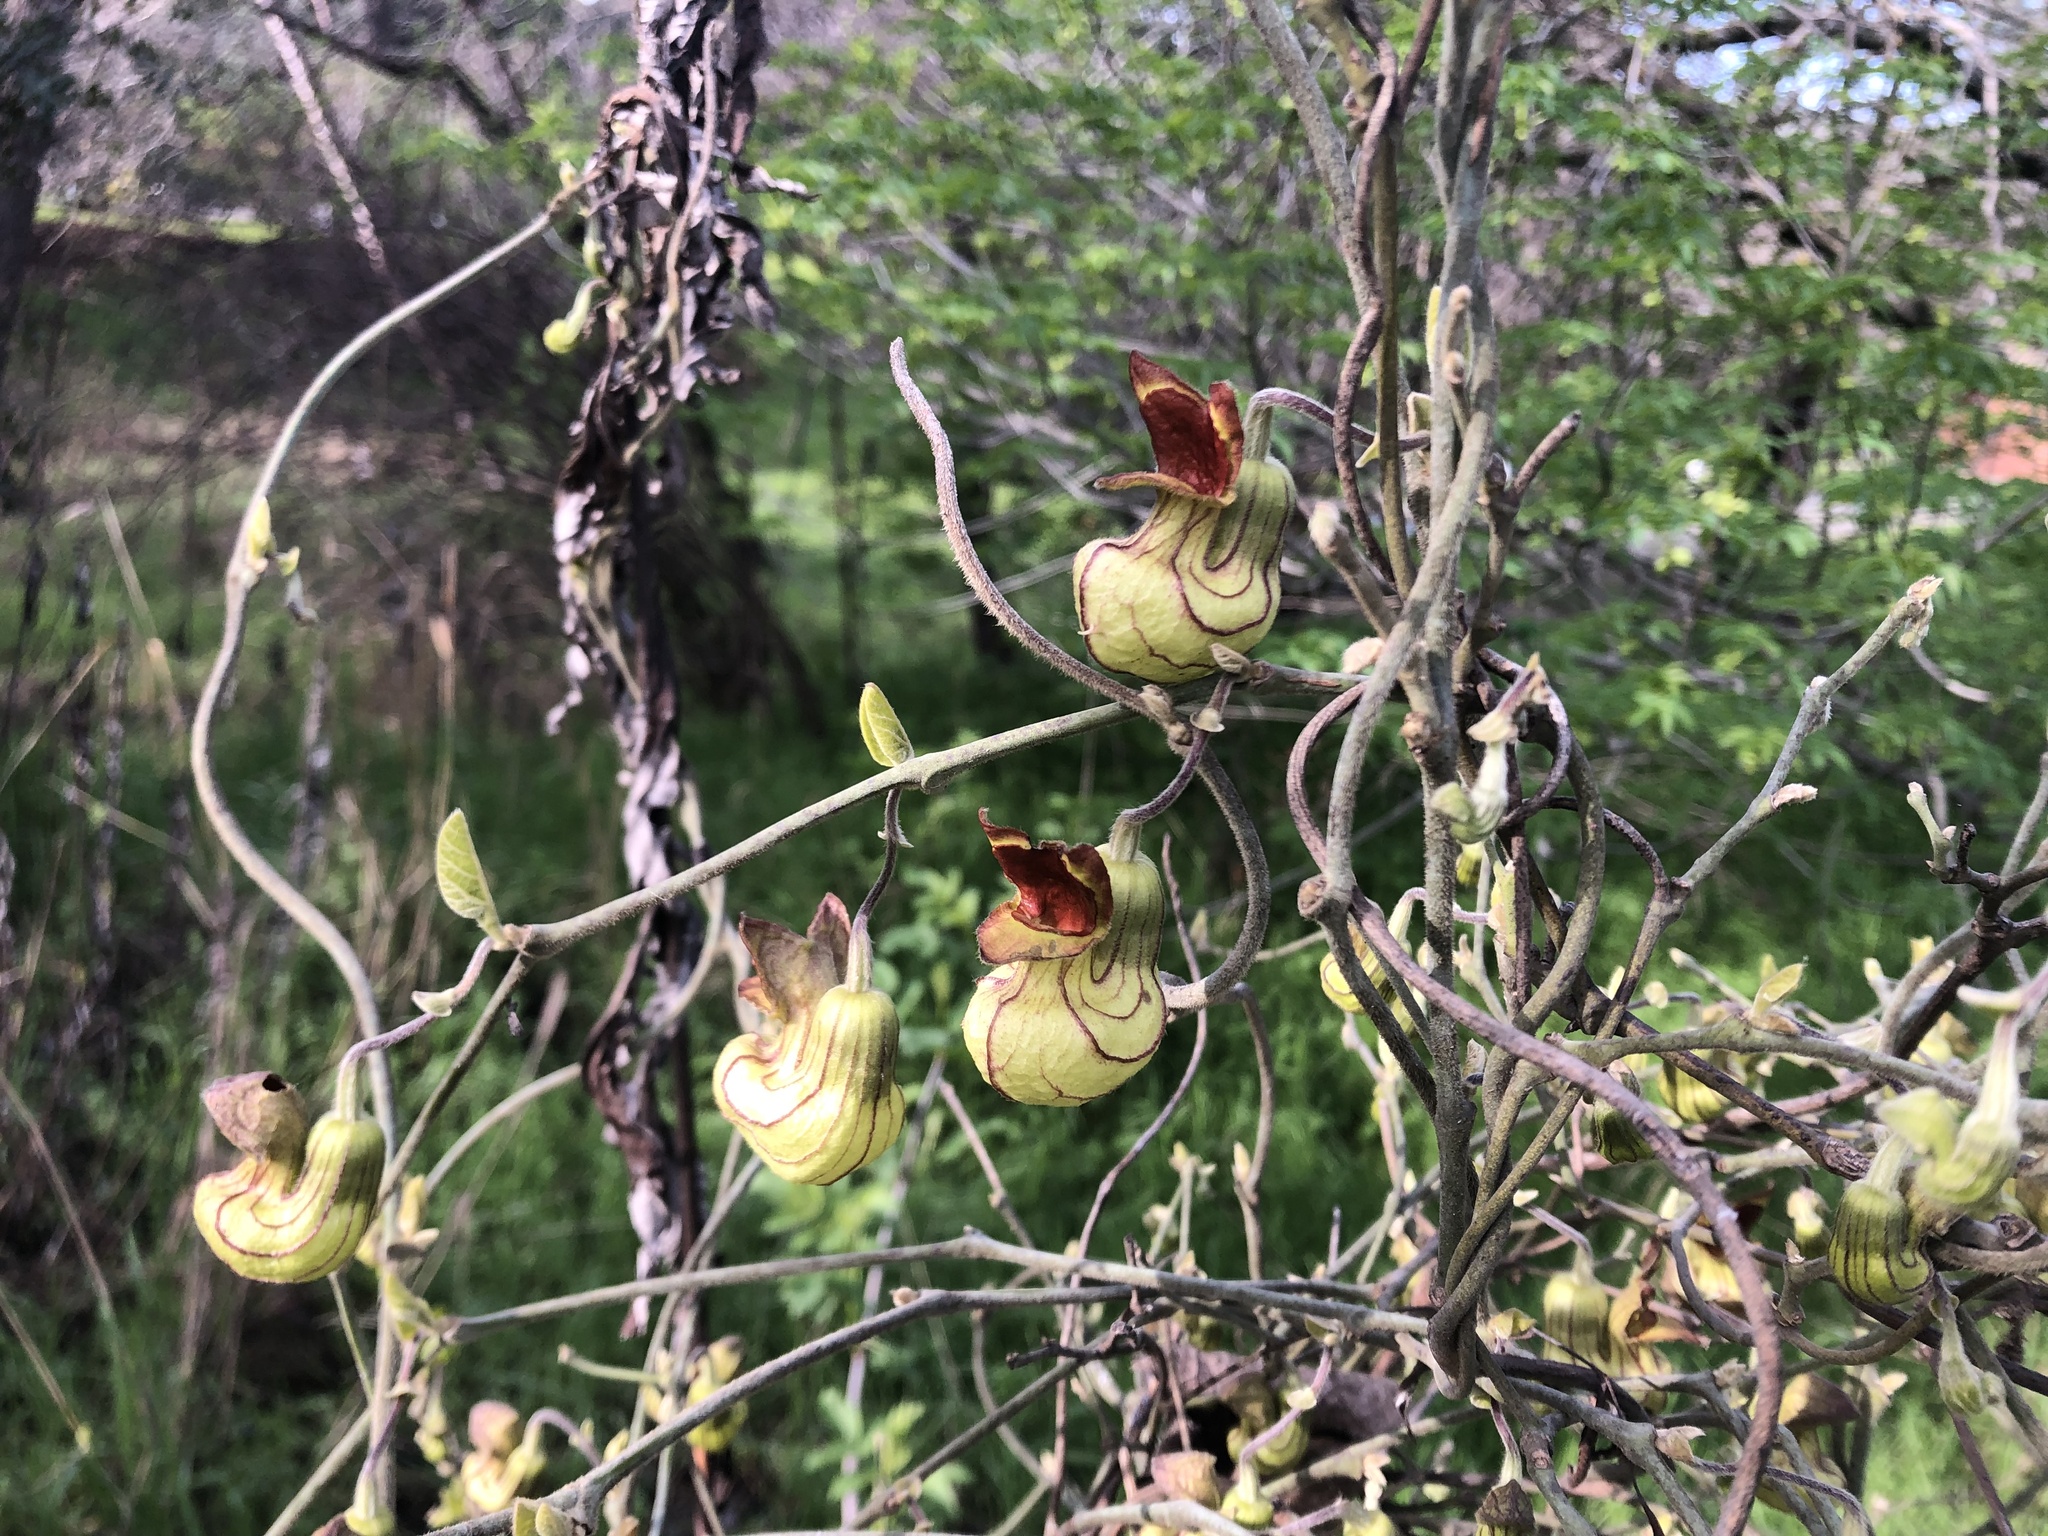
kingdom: Plantae
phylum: Tracheophyta
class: Magnoliopsida
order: Piperales
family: Aristolochiaceae
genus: Isotrema
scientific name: Isotrema californicum
